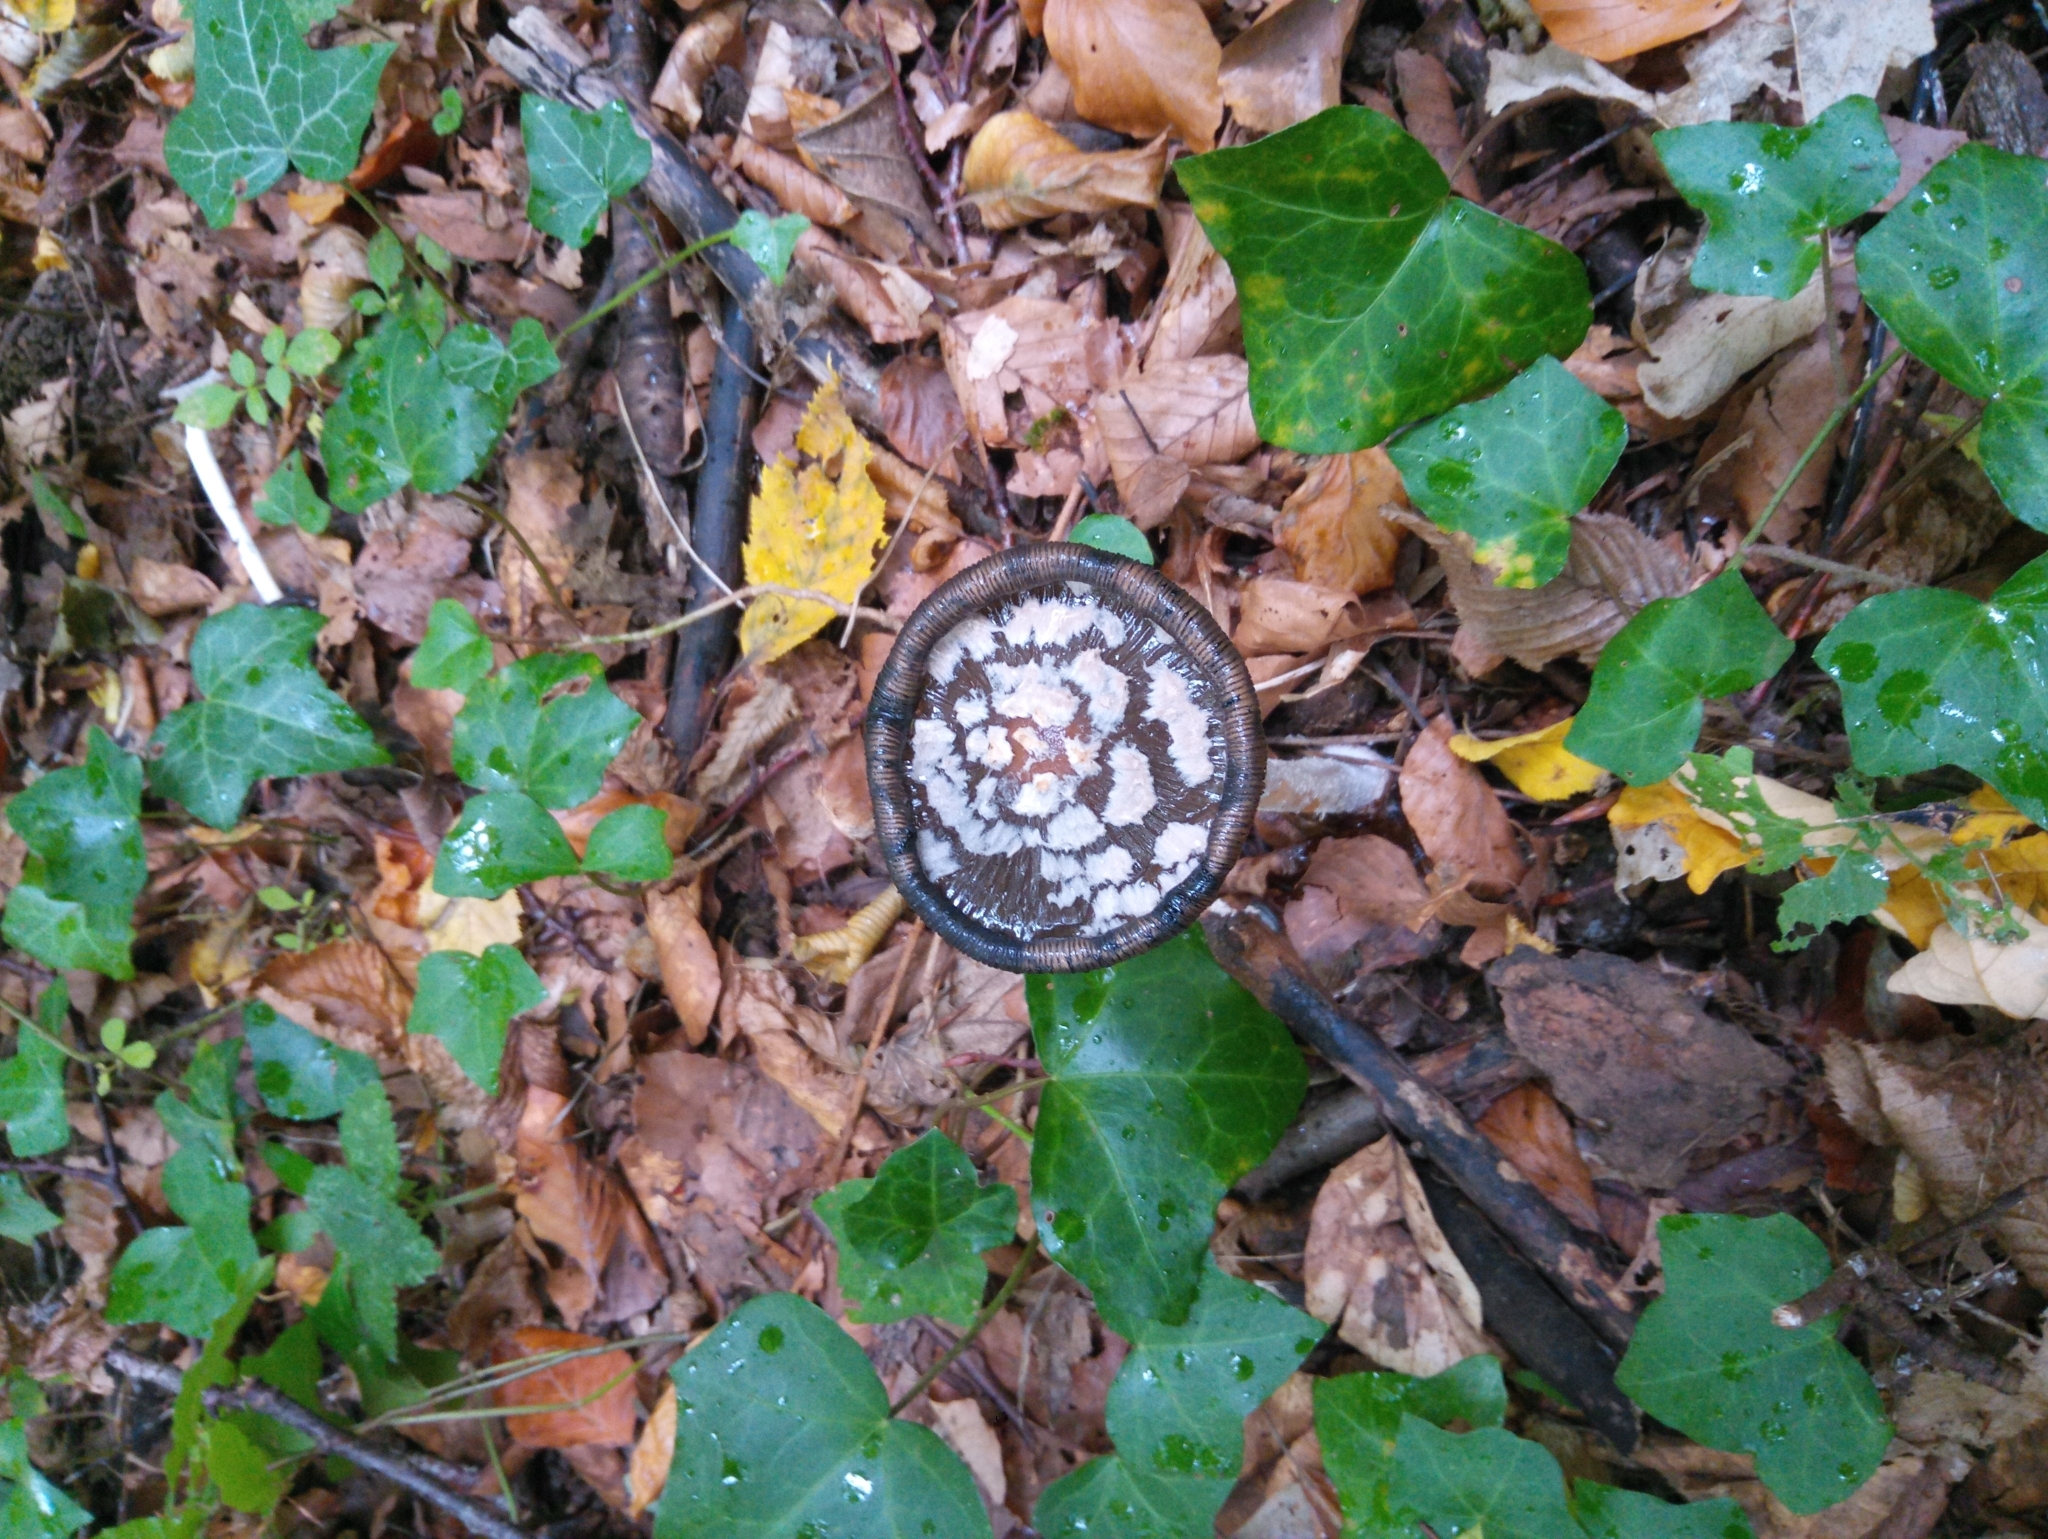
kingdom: Fungi
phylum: Basidiomycota
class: Agaricomycetes
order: Agaricales
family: Psathyrellaceae
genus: Coprinopsis
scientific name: Coprinopsis picacea
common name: Magpie inkcap
